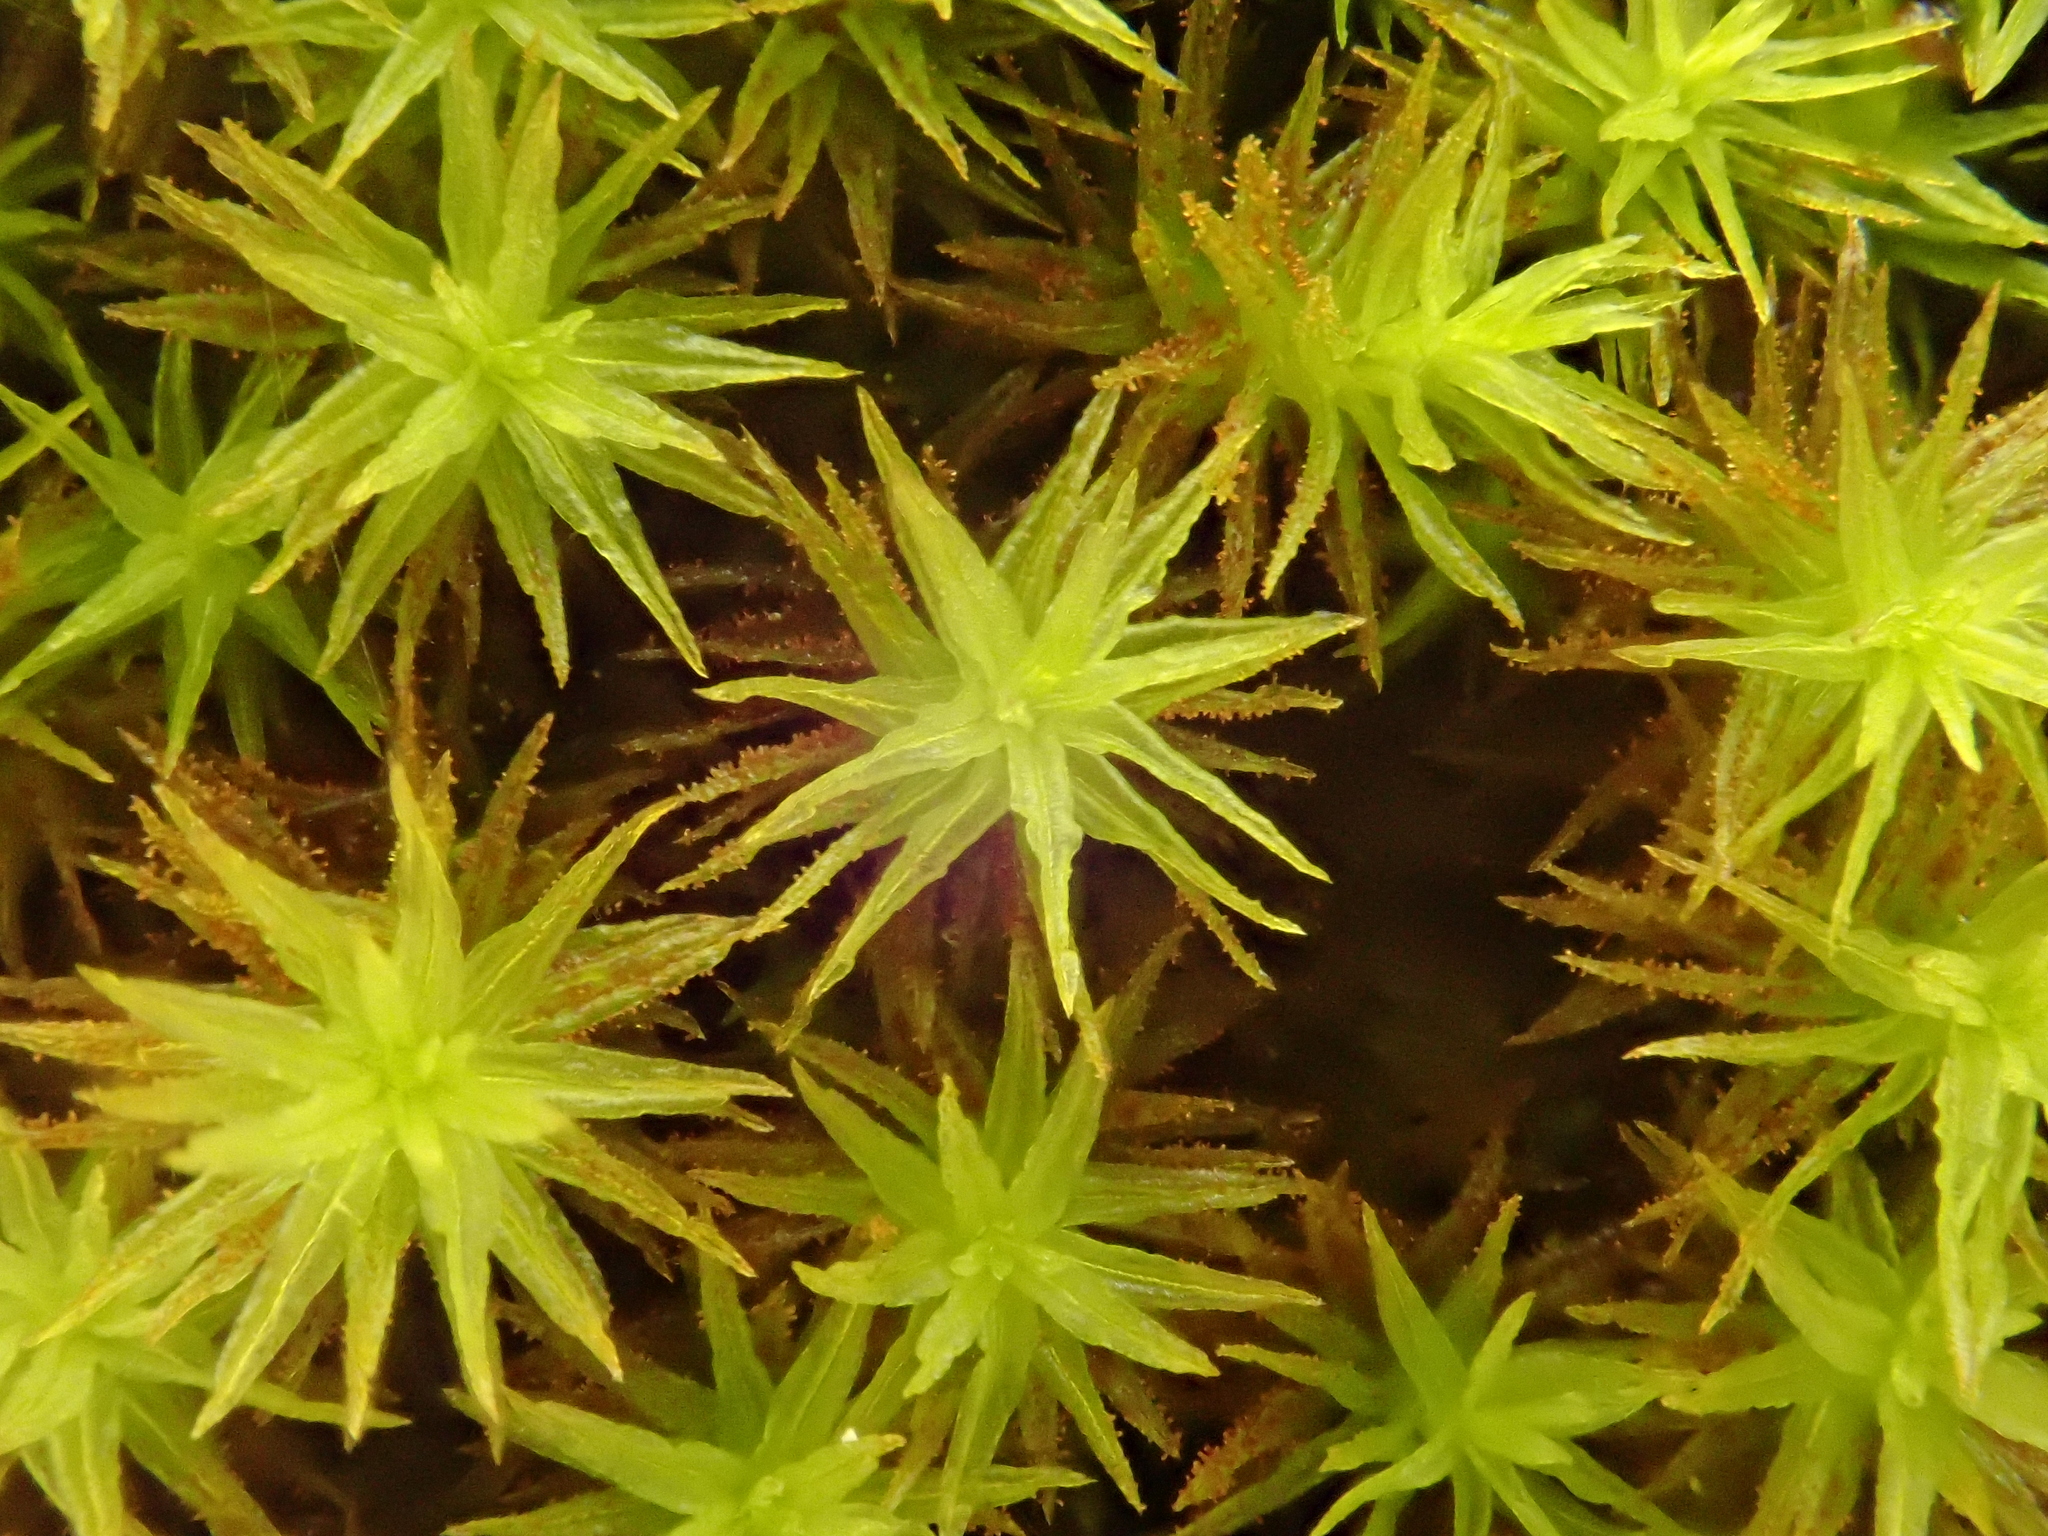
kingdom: Plantae
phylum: Bryophyta
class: Bryopsida
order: Orthotrichales
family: Orthotrichaceae
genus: Pulvigera
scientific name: Pulvigera lyellii
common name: Lyell's bristle-moss
